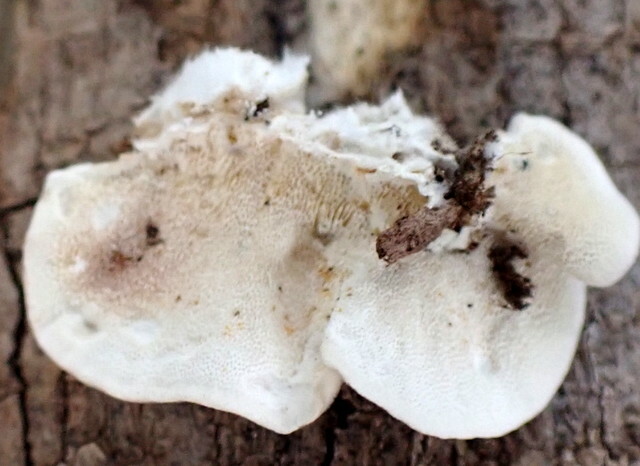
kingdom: Fungi
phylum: Basidiomycota
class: Agaricomycetes
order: Polyporales
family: Polyporaceae
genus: Trametes
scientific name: Trametes versicolor
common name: Turkeytail
